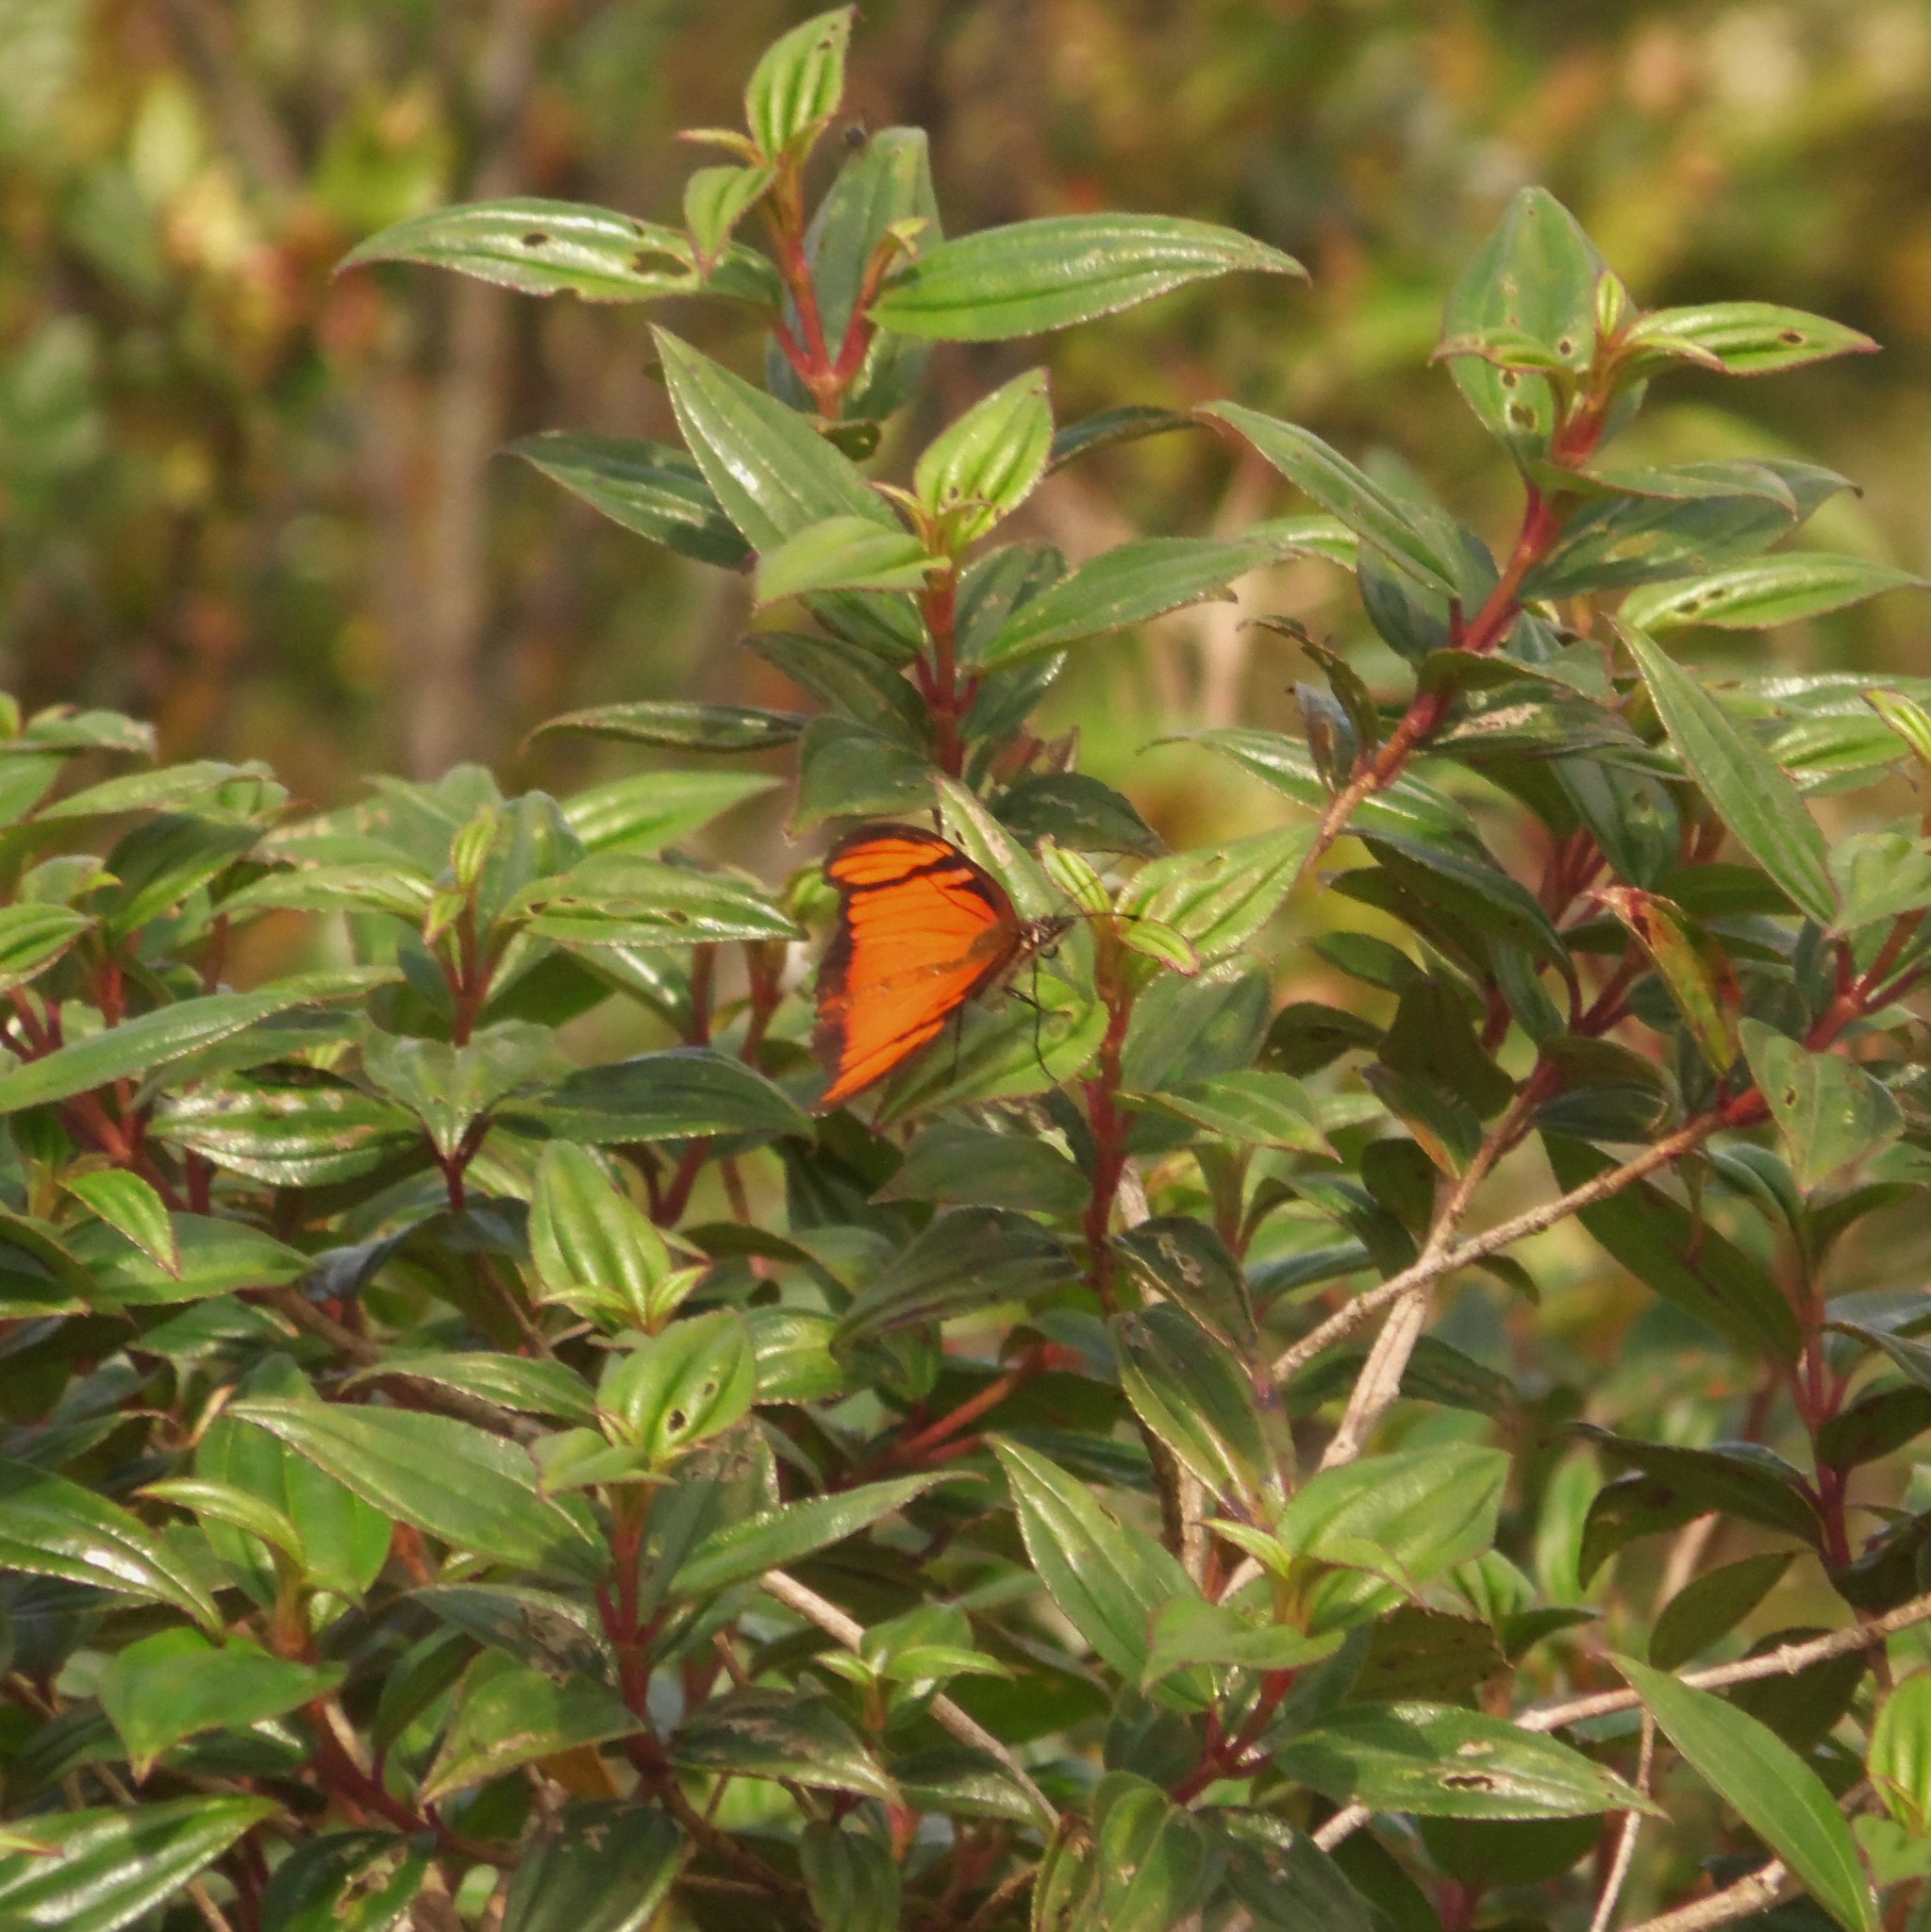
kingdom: Animalia
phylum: Arthropoda
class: Insecta
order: Lepidoptera
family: Nymphalidae
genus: Dione
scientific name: Dione juno
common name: Juno silverspot
